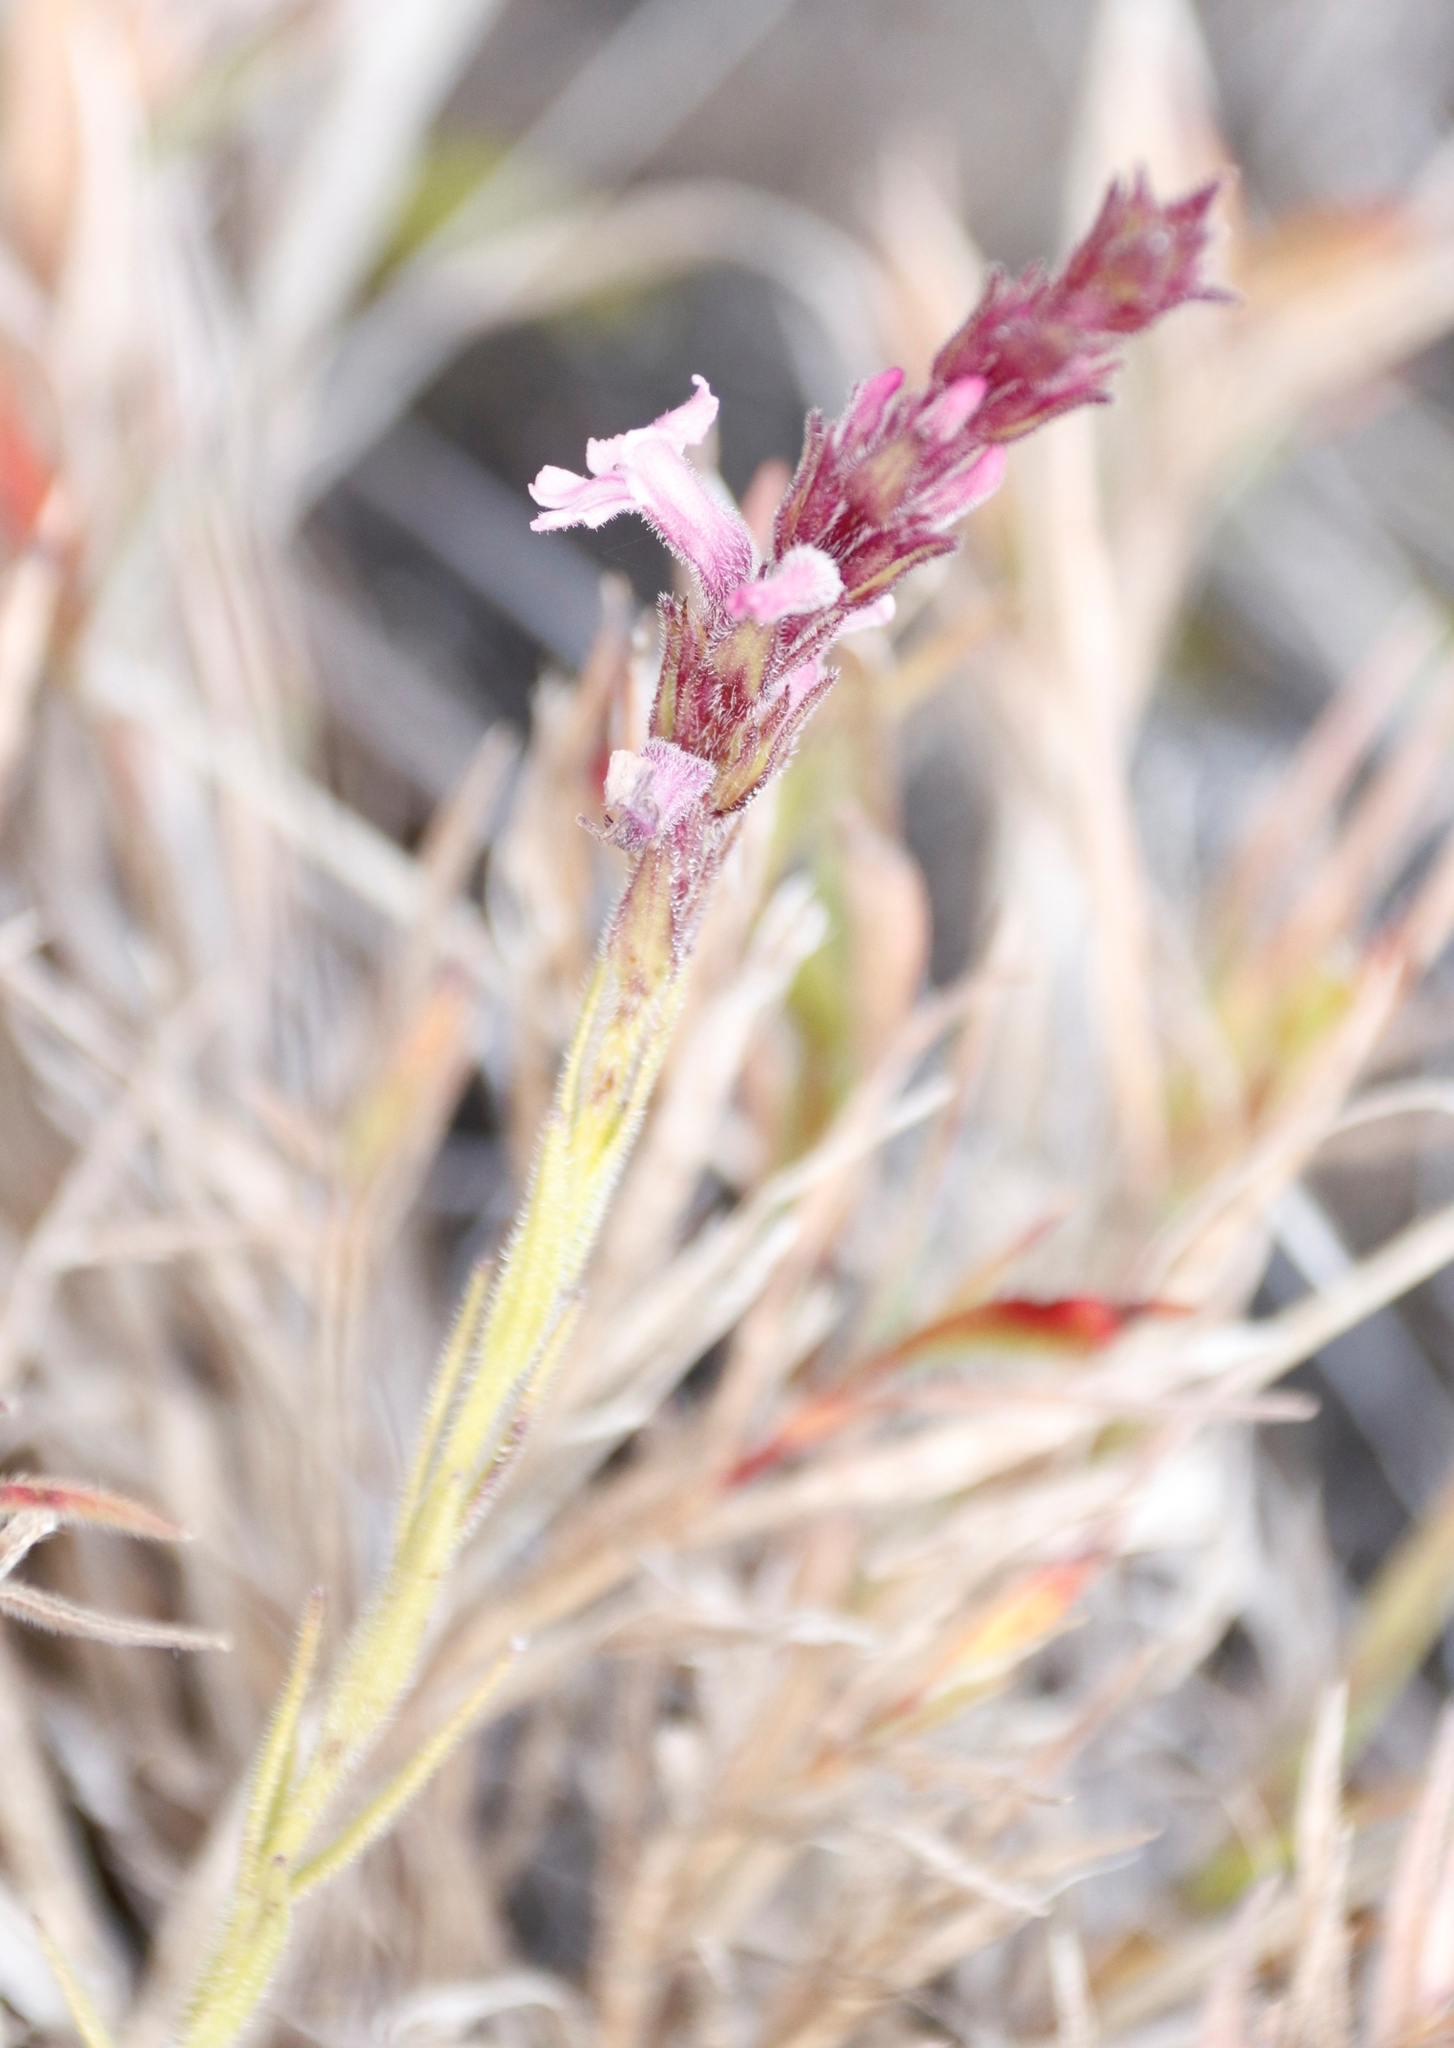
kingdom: Plantae
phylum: Tracheophyta
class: Magnoliopsida
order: Lamiales
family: Orobanchaceae
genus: Striga
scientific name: Striga bilabiata
